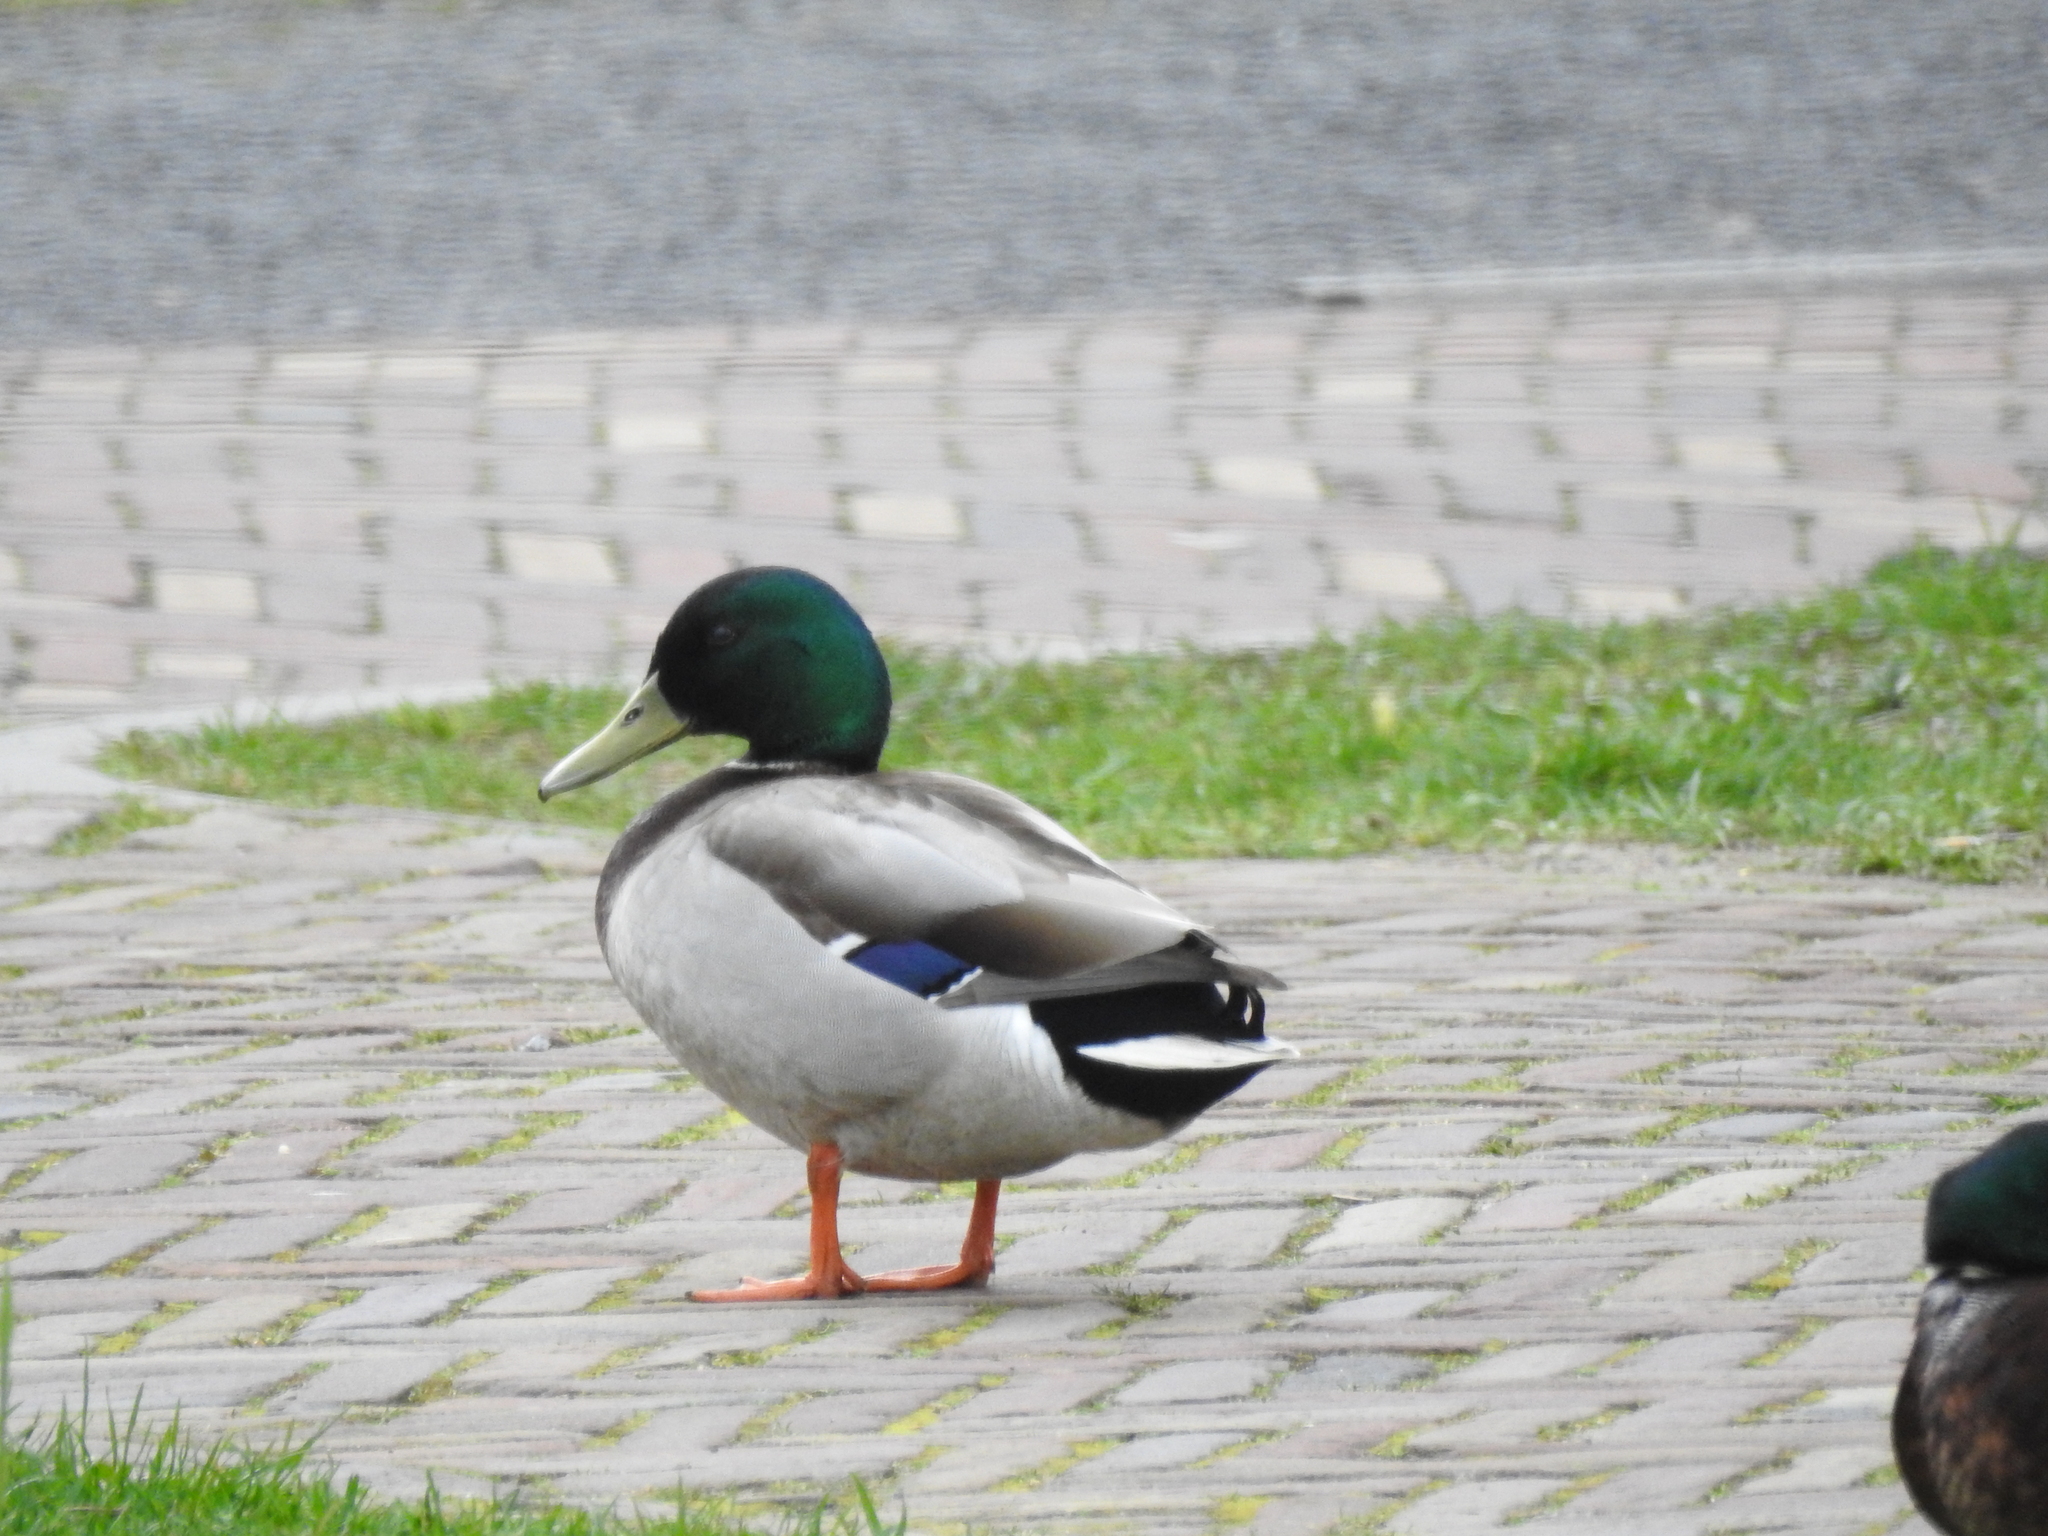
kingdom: Animalia
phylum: Chordata
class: Aves
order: Anseriformes
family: Anatidae
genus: Anas
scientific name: Anas platyrhynchos
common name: Mallard
